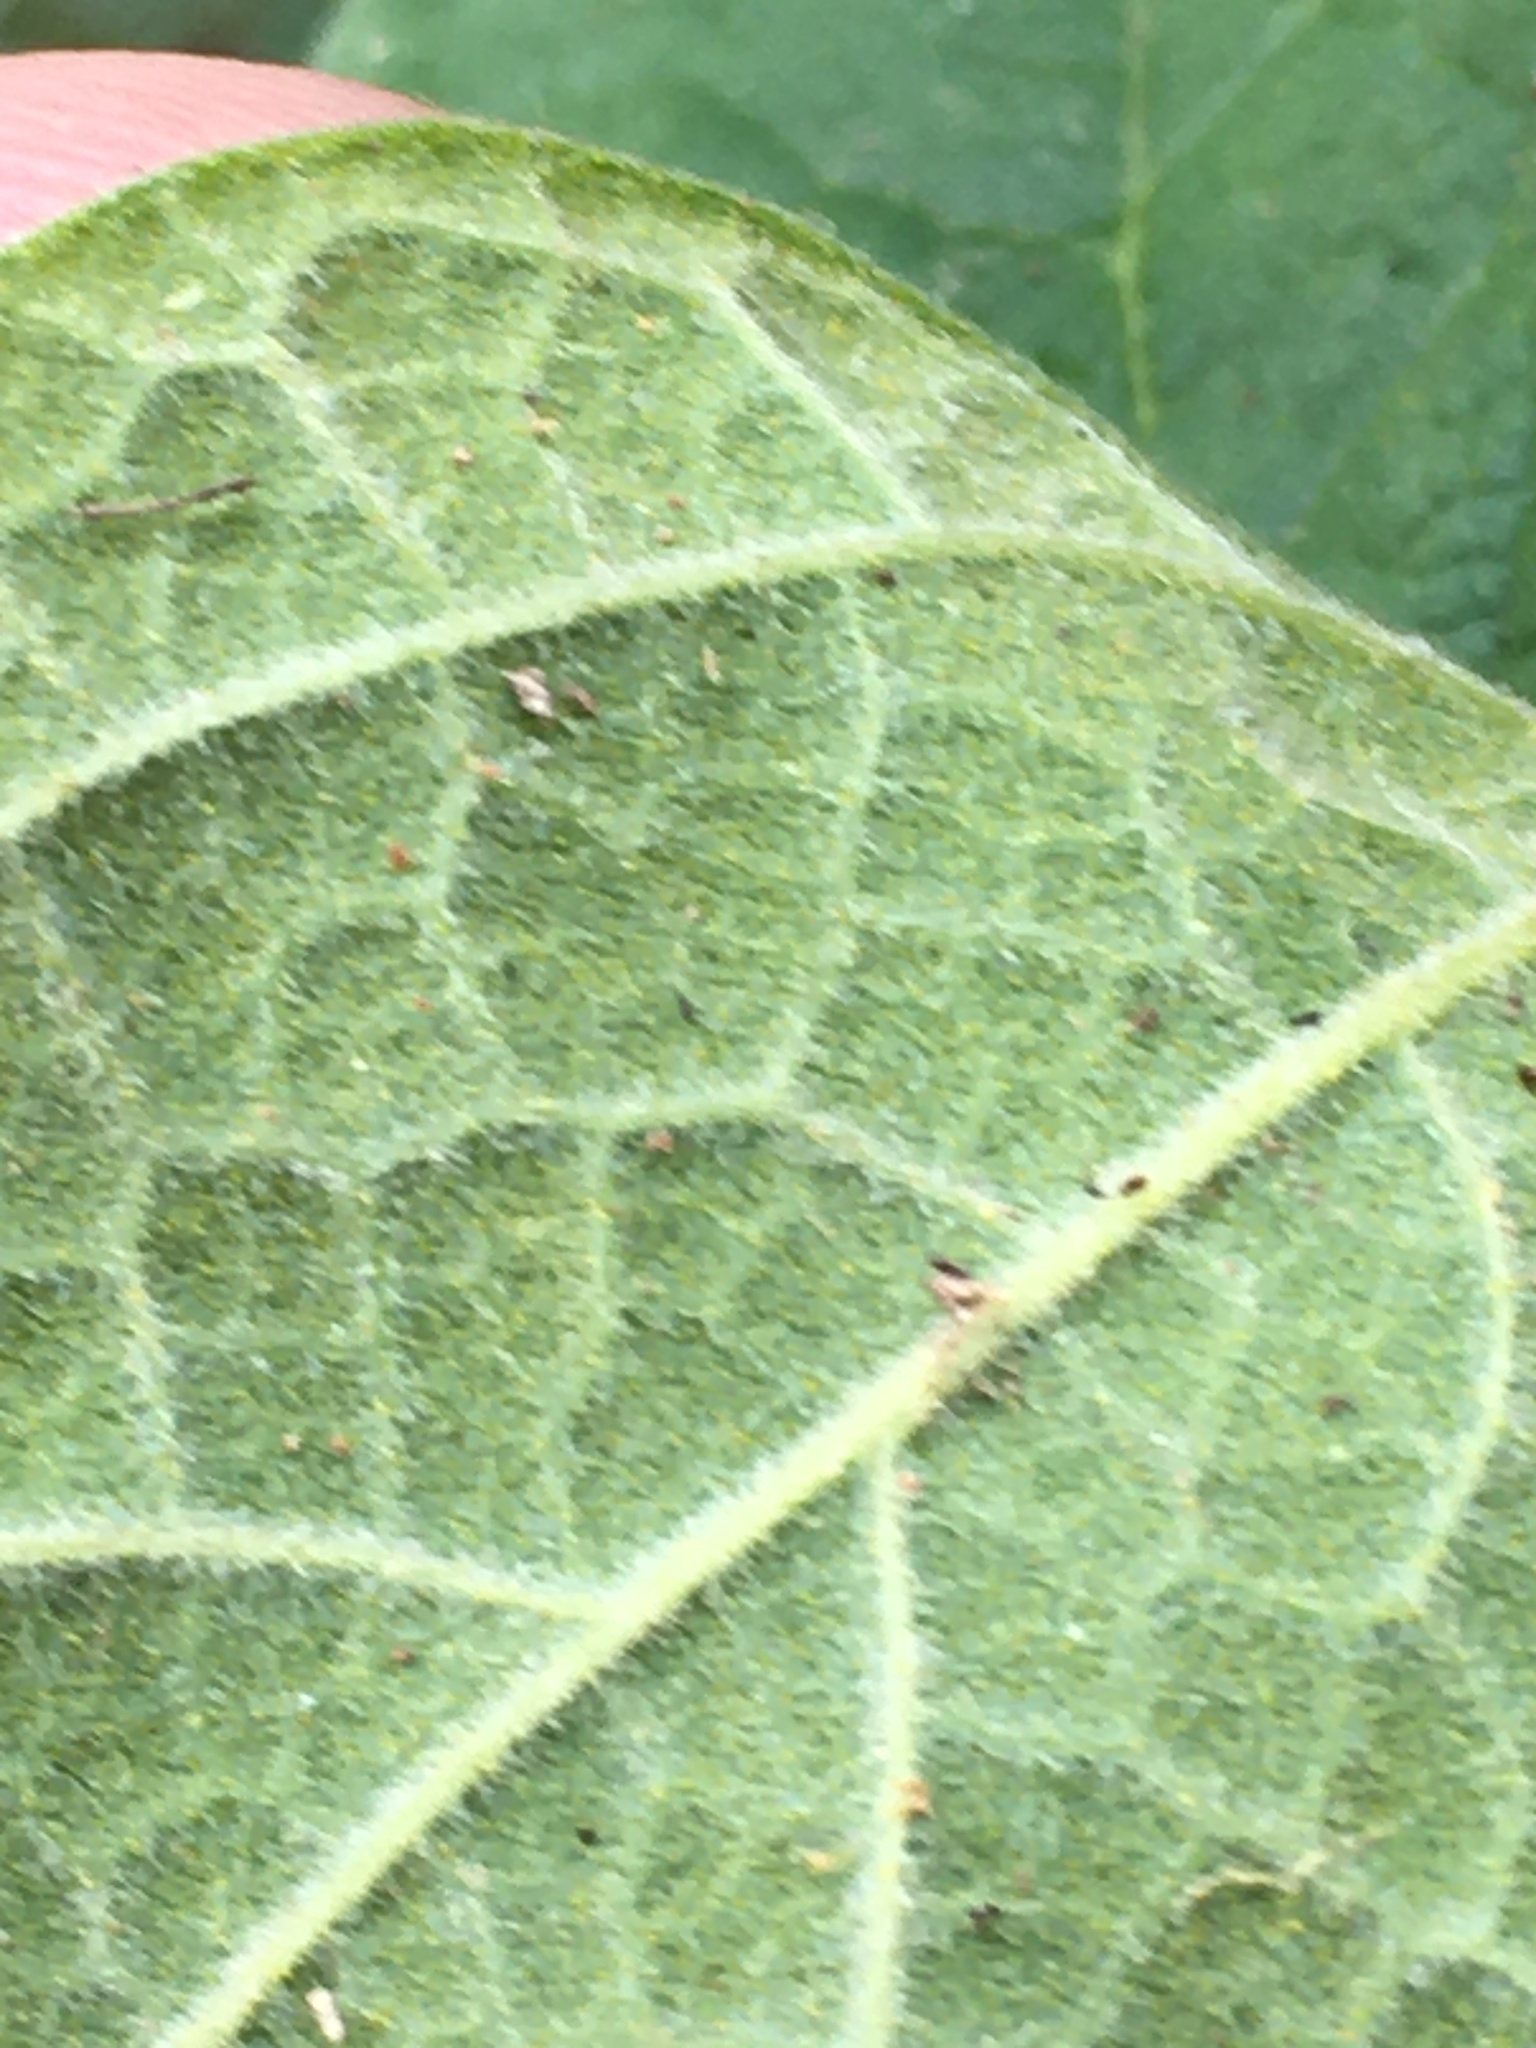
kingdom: Plantae
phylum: Tracheophyta
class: Magnoliopsida
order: Fabales
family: Fabaceae
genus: Rhynchosia
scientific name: Rhynchosia tomentosa
